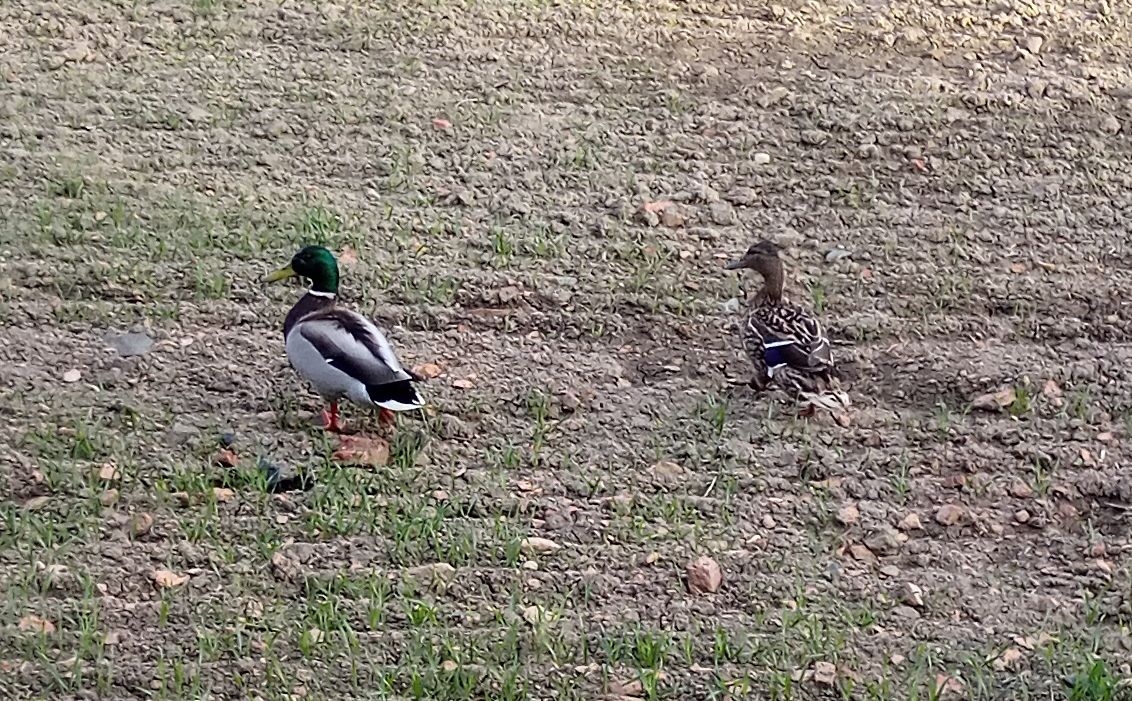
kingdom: Animalia
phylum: Chordata
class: Aves
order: Anseriformes
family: Anatidae
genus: Anas
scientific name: Anas platyrhynchos
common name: Mallard
